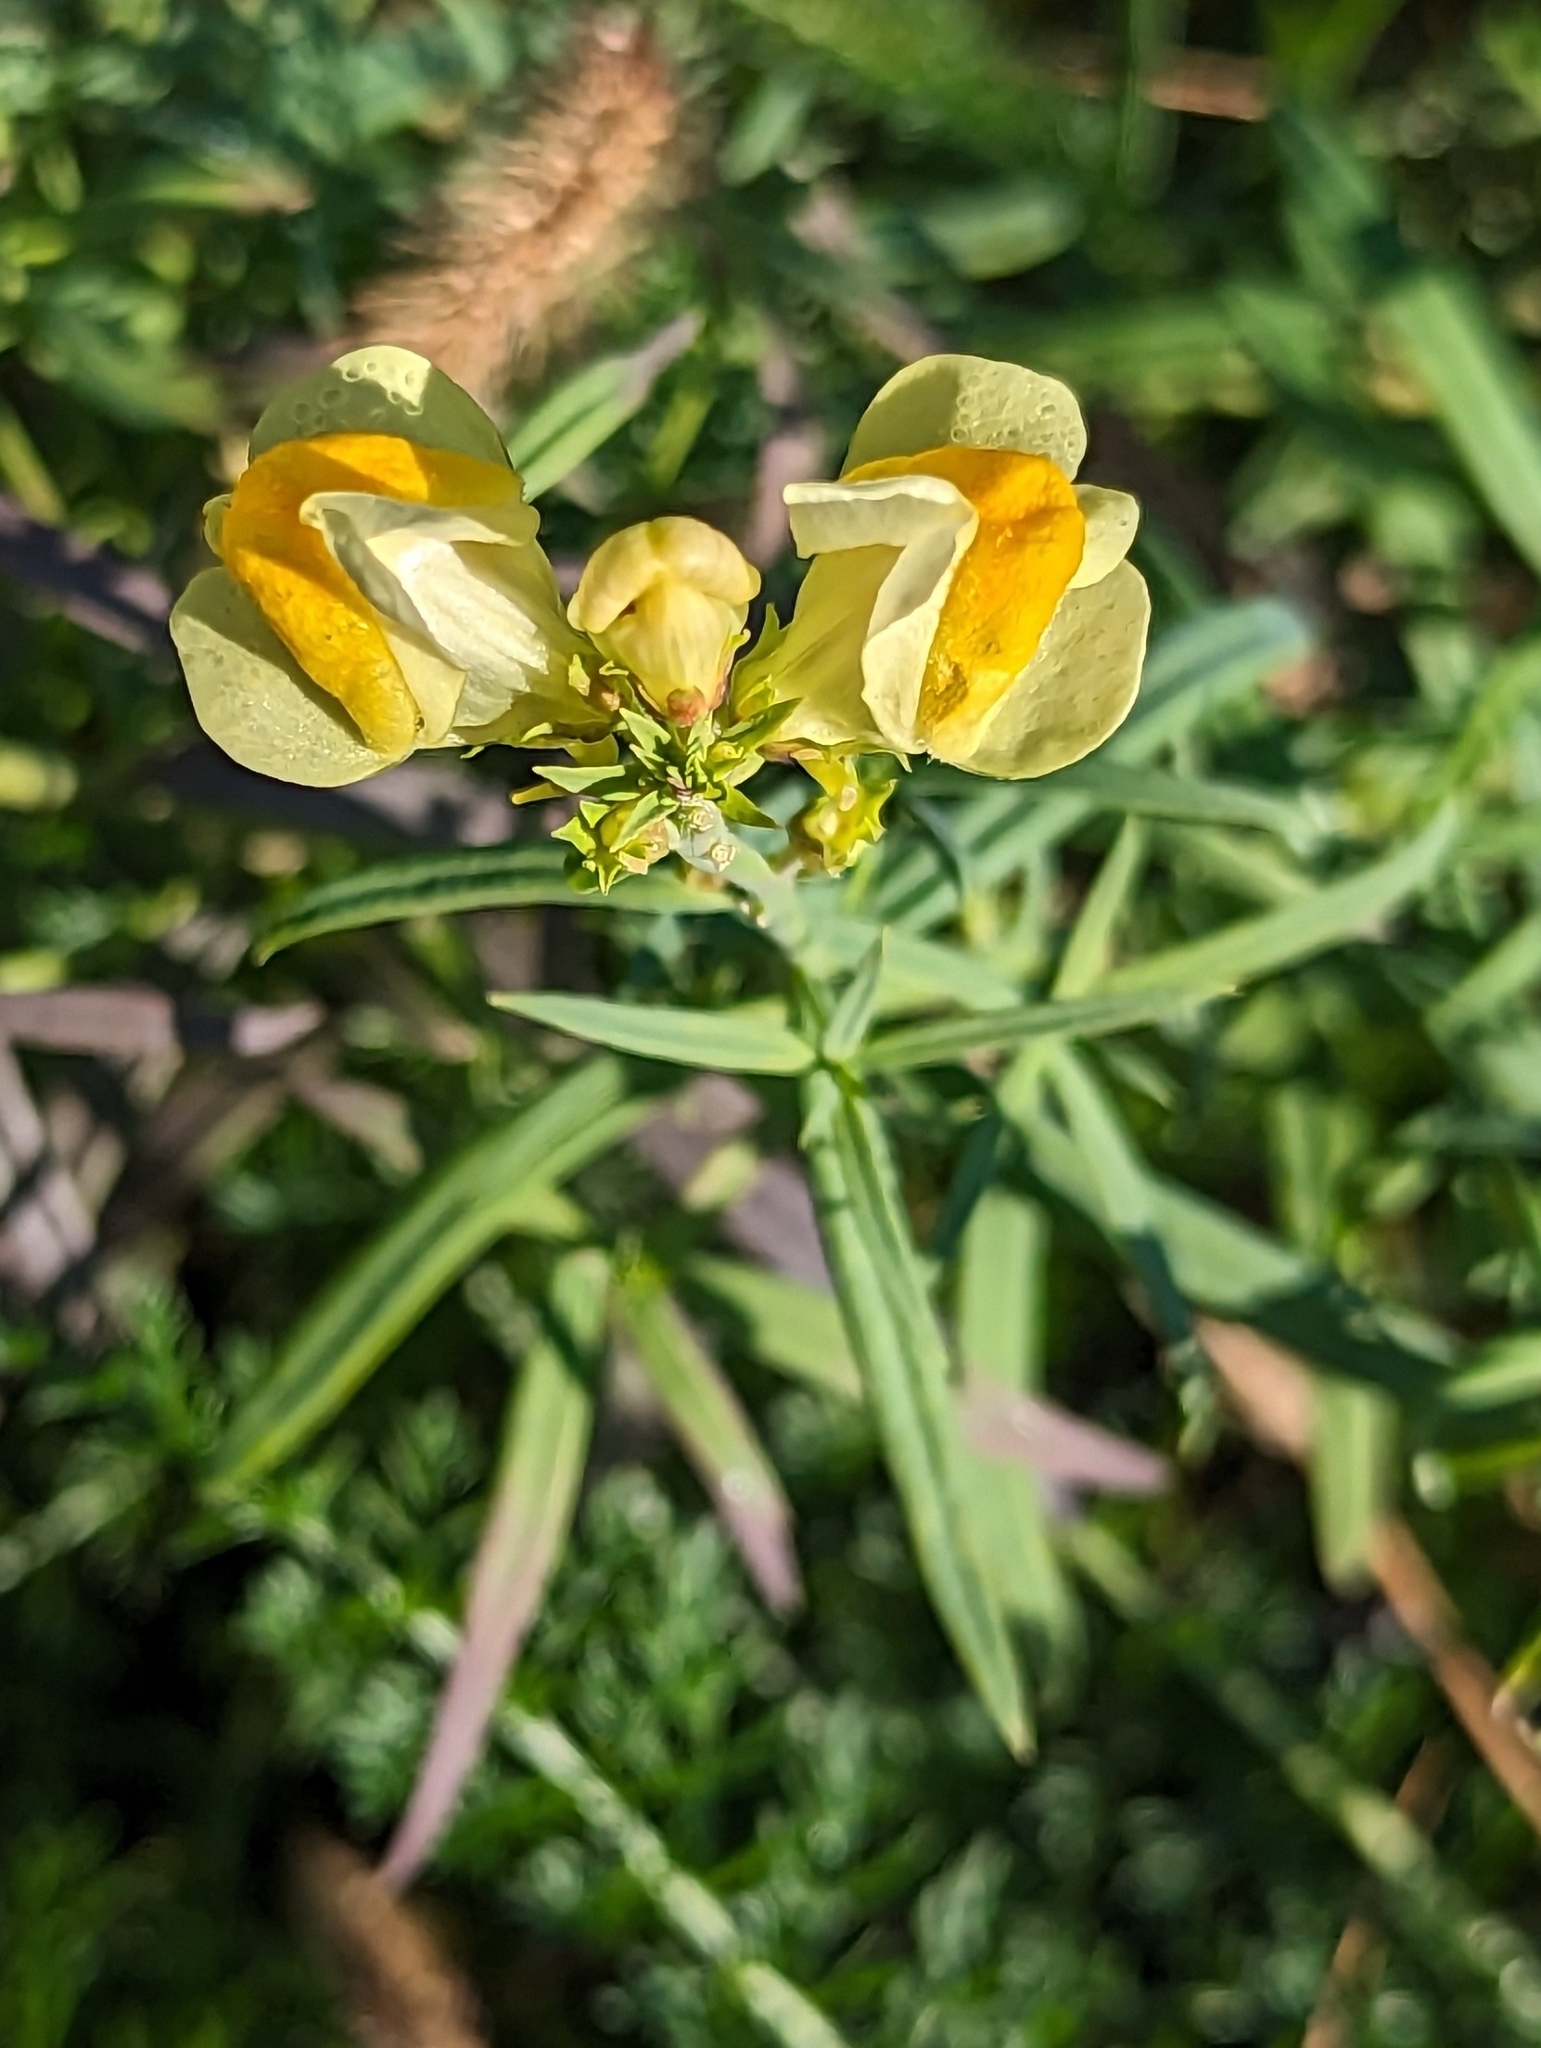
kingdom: Plantae
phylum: Tracheophyta
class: Magnoliopsida
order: Lamiales
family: Plantaginaceae
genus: Linaria
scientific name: Linaria vulgaris
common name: Butter and eggs
